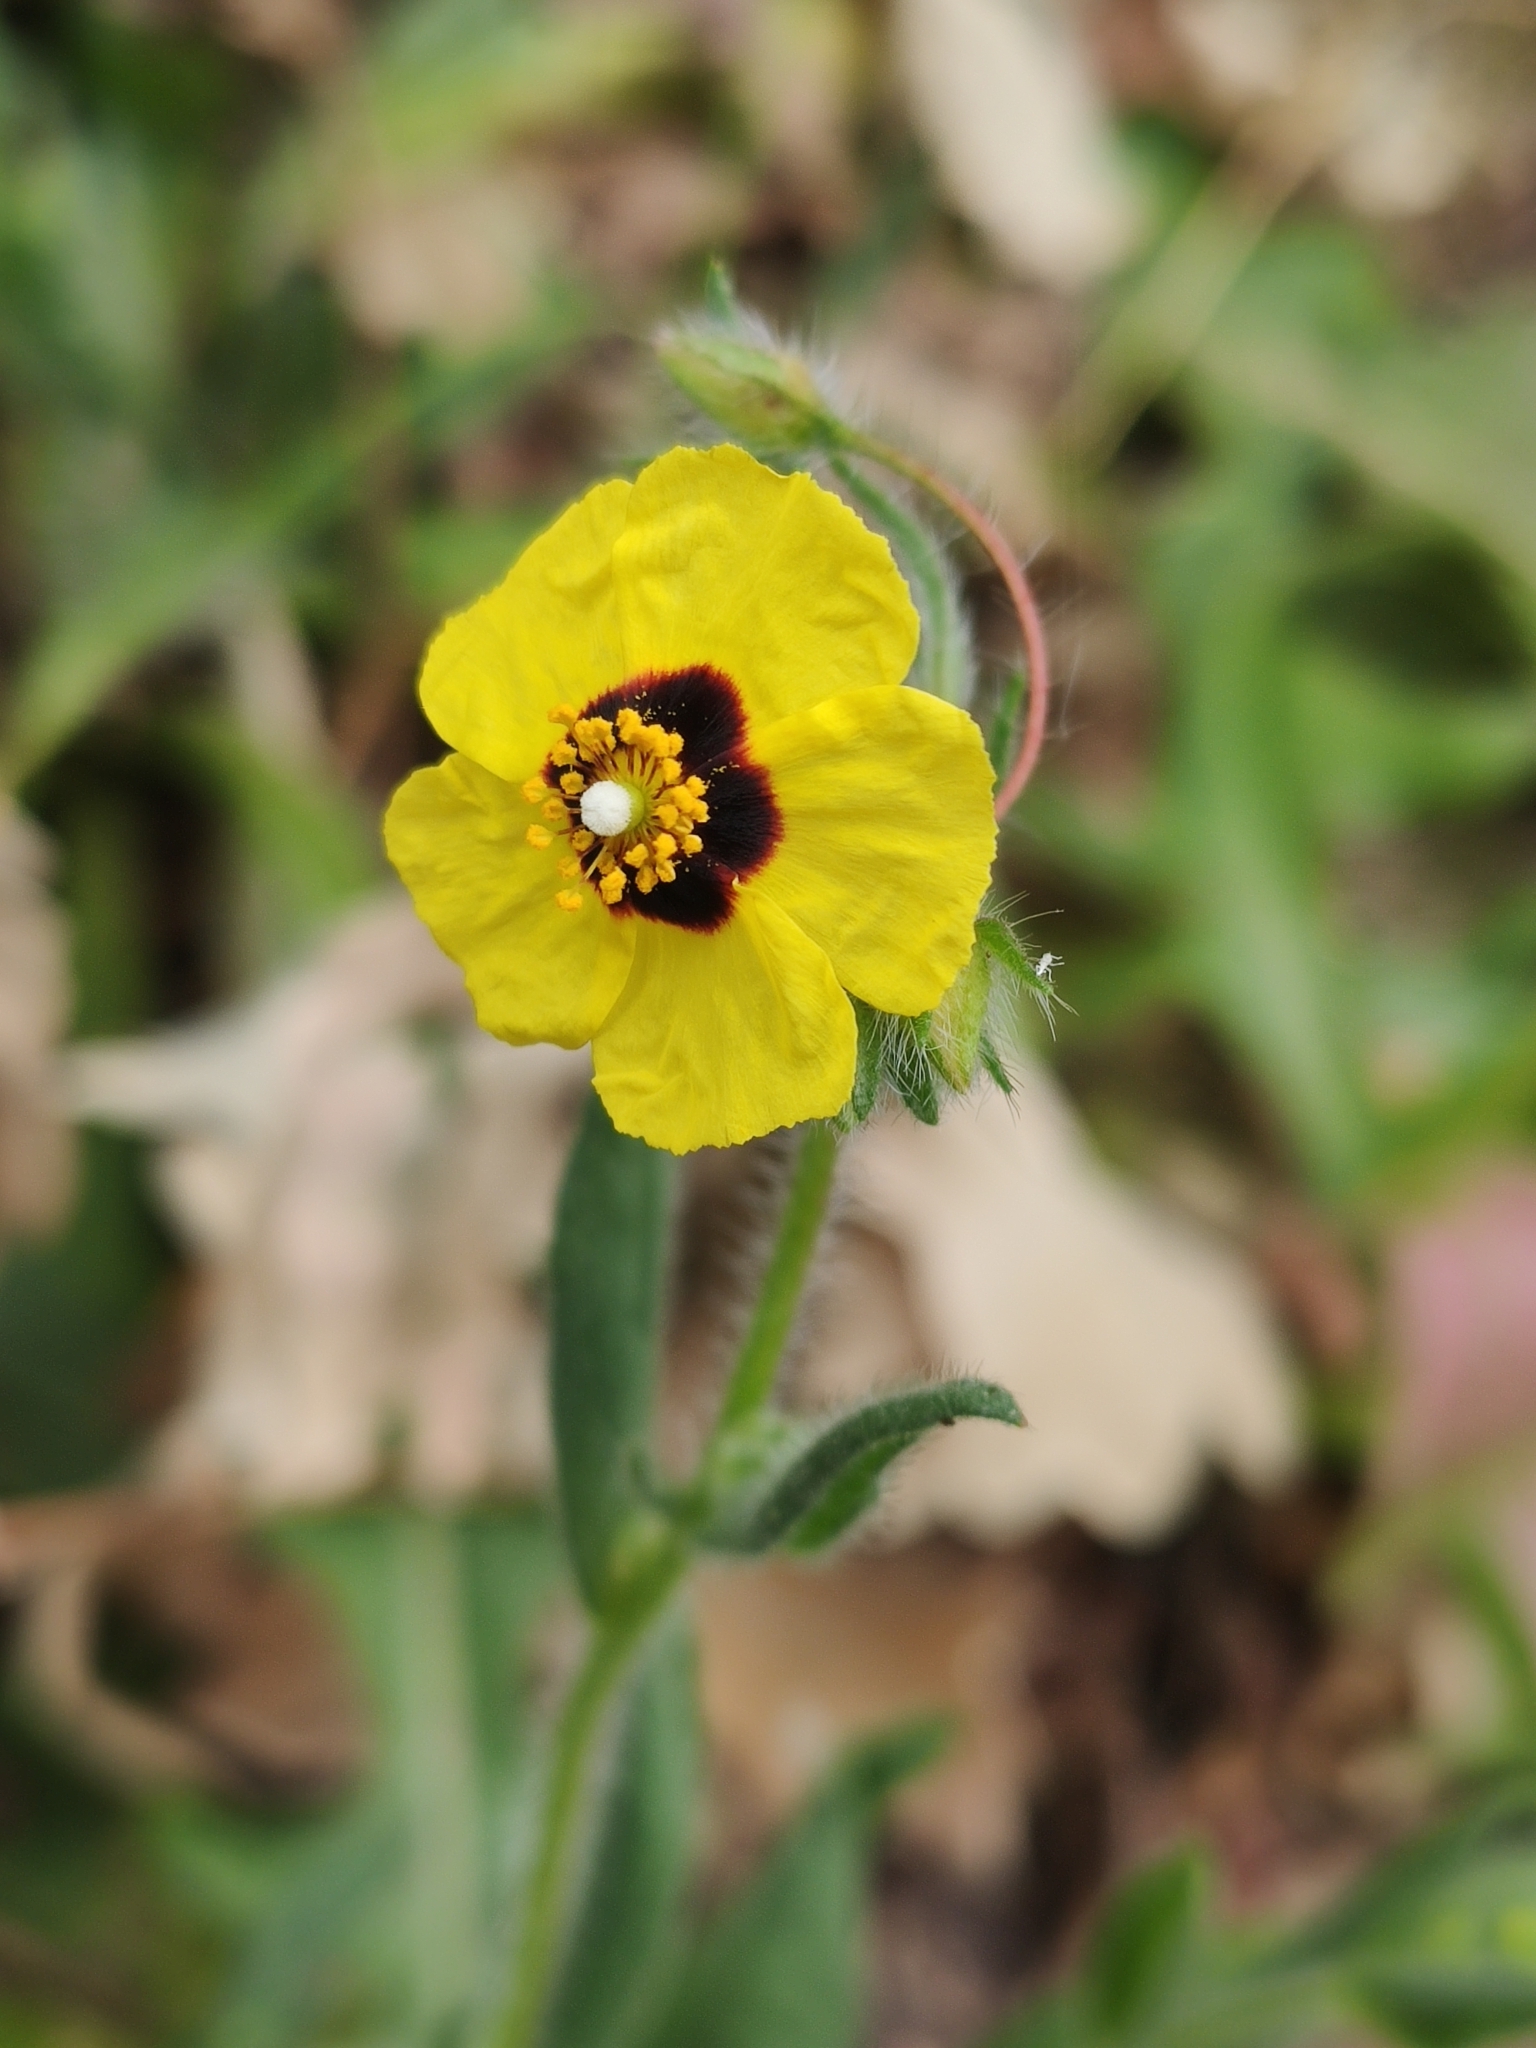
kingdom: Plantae
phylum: Tracheophyta
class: Magnoliopsida
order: Malvales
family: Cistaceae
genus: Tuberaria
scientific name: Tuberaria guttata
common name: Spotted rock-rose
